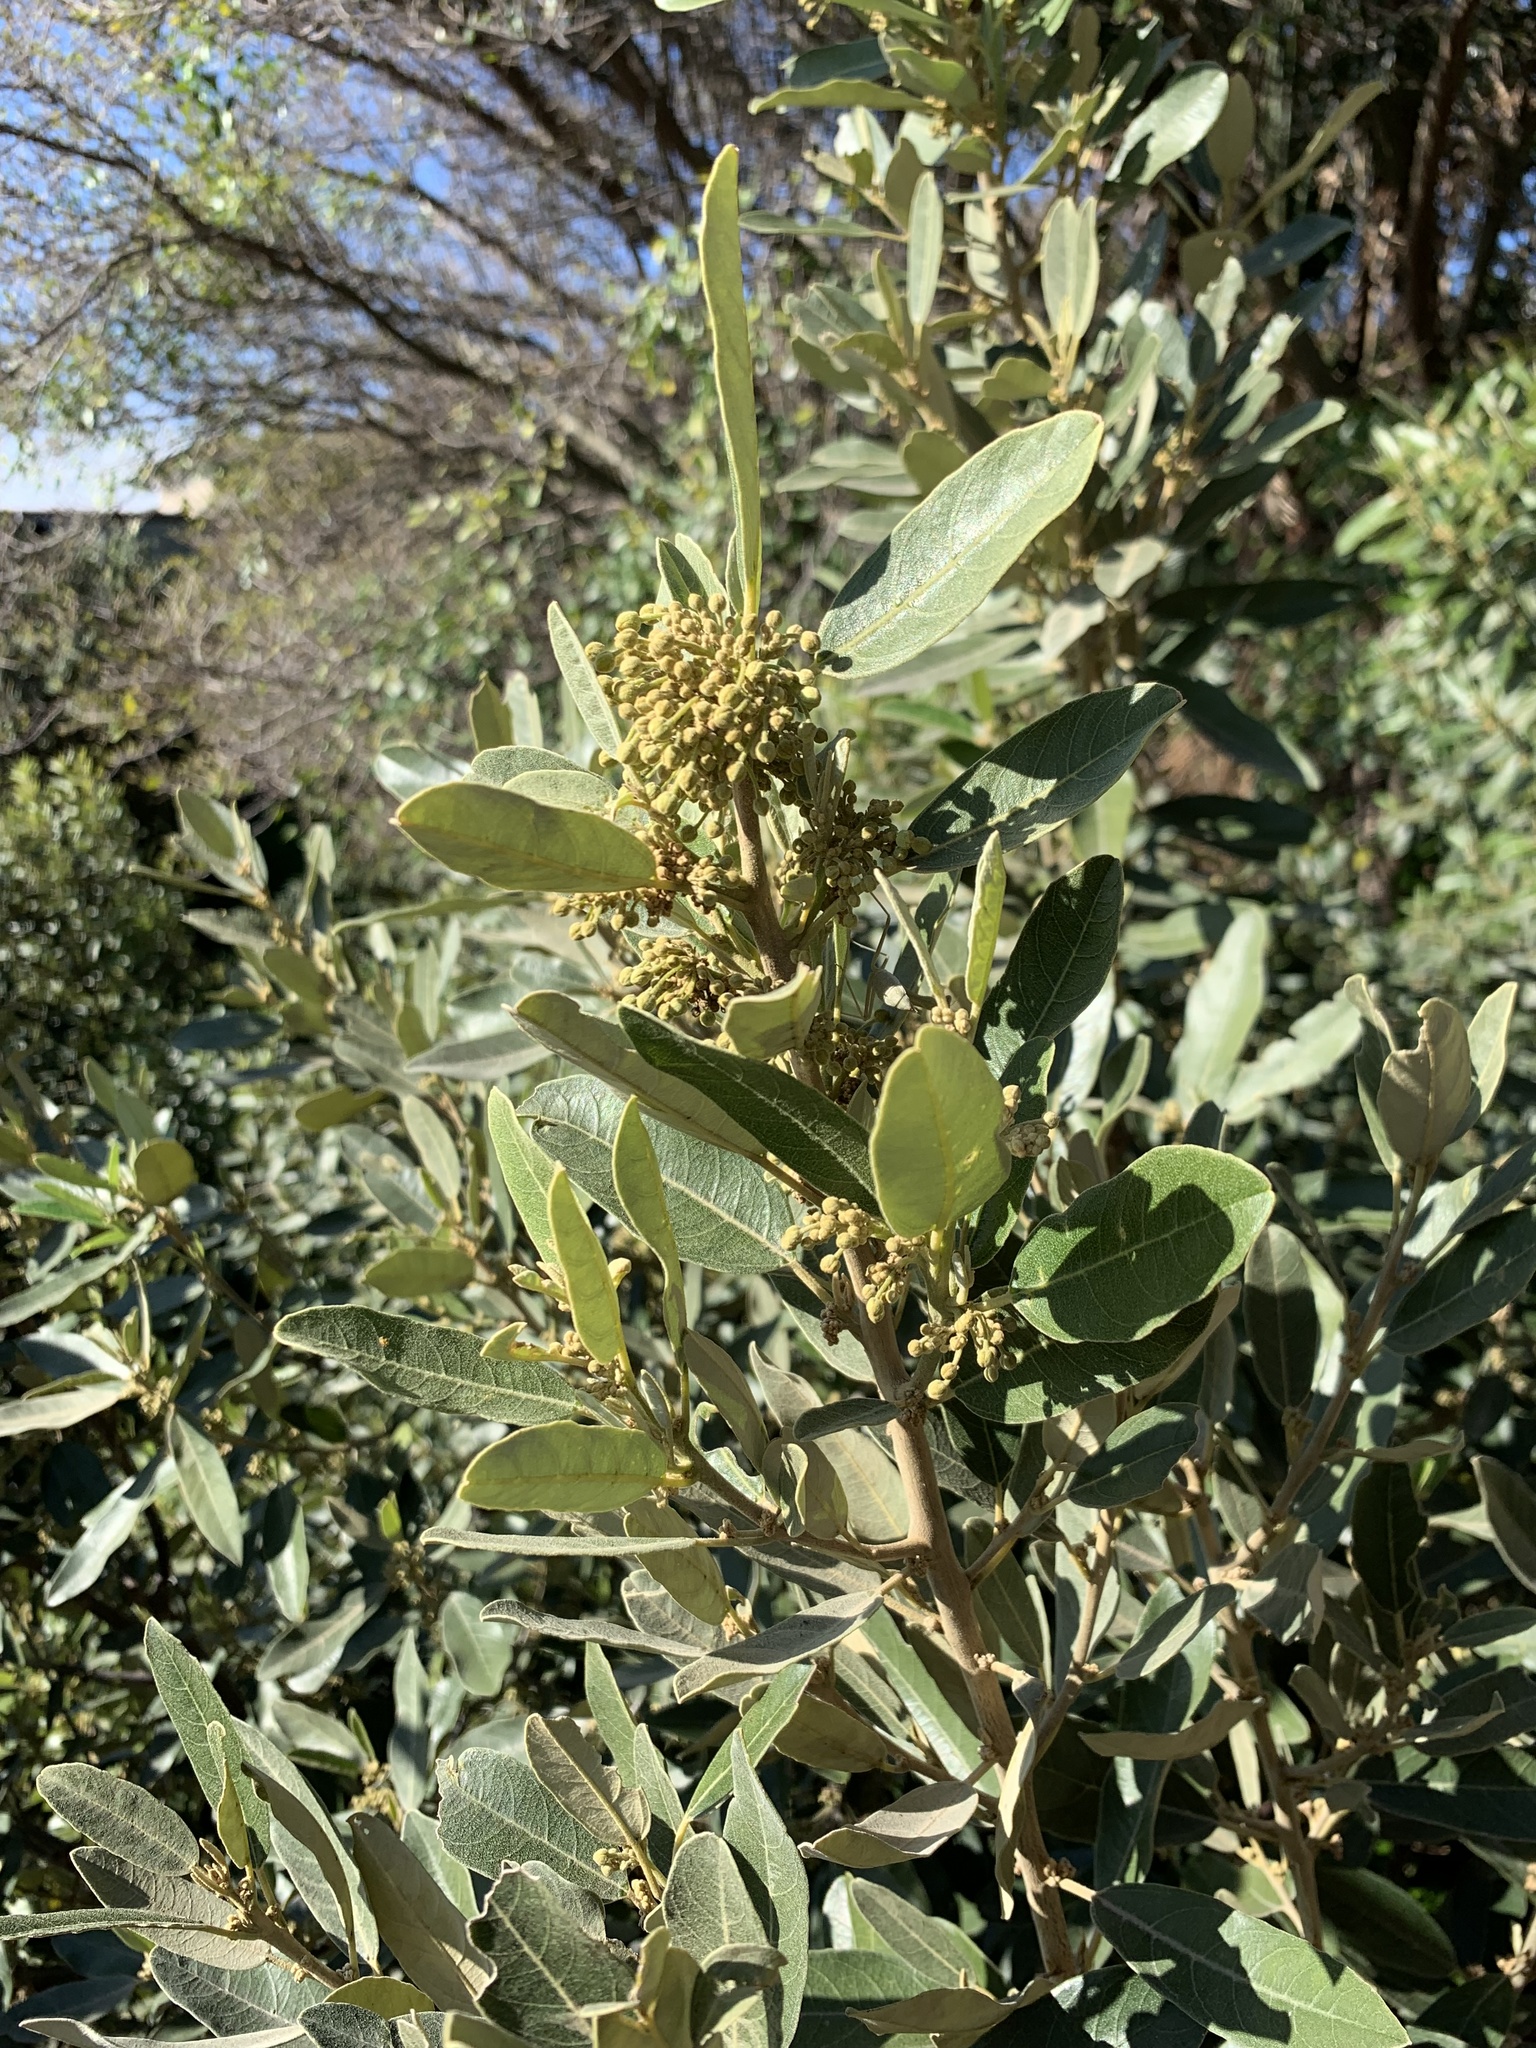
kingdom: Plantae
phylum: Tracheophyta
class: Magnoliopsida
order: Malpighiales
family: Achariaceae
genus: Kiggelaria
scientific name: Kiggelaria africana
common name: Wild peach
